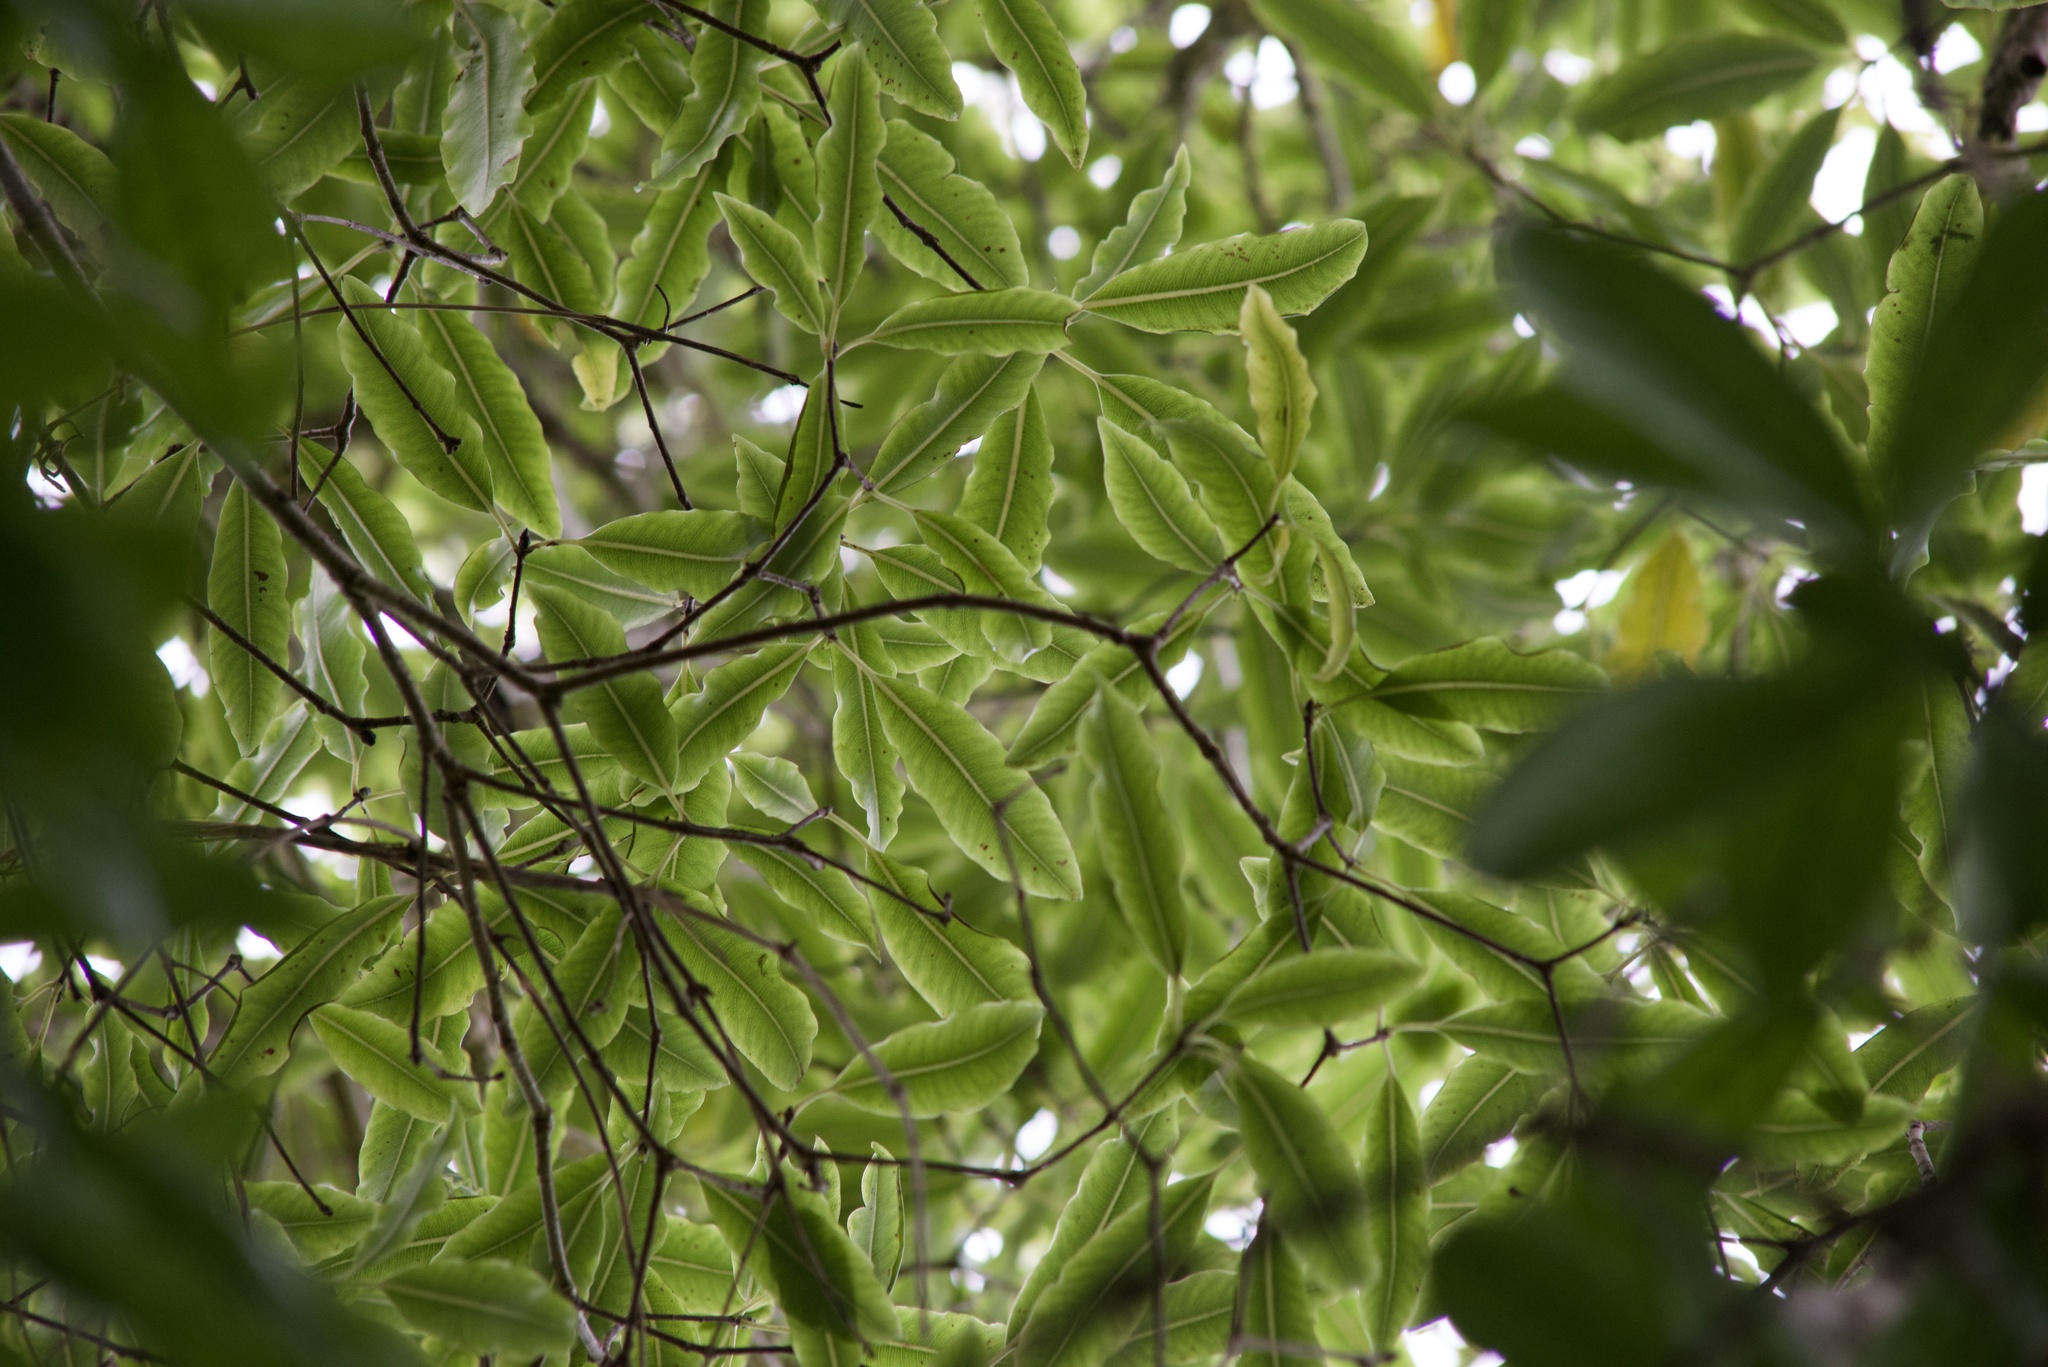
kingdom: Plantae
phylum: Tracheophyta
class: Magnoliopsida
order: Apiales
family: Pittosporaceae
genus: Pittosporum
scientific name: Pittosporum eugenioides
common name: Lemonwood
